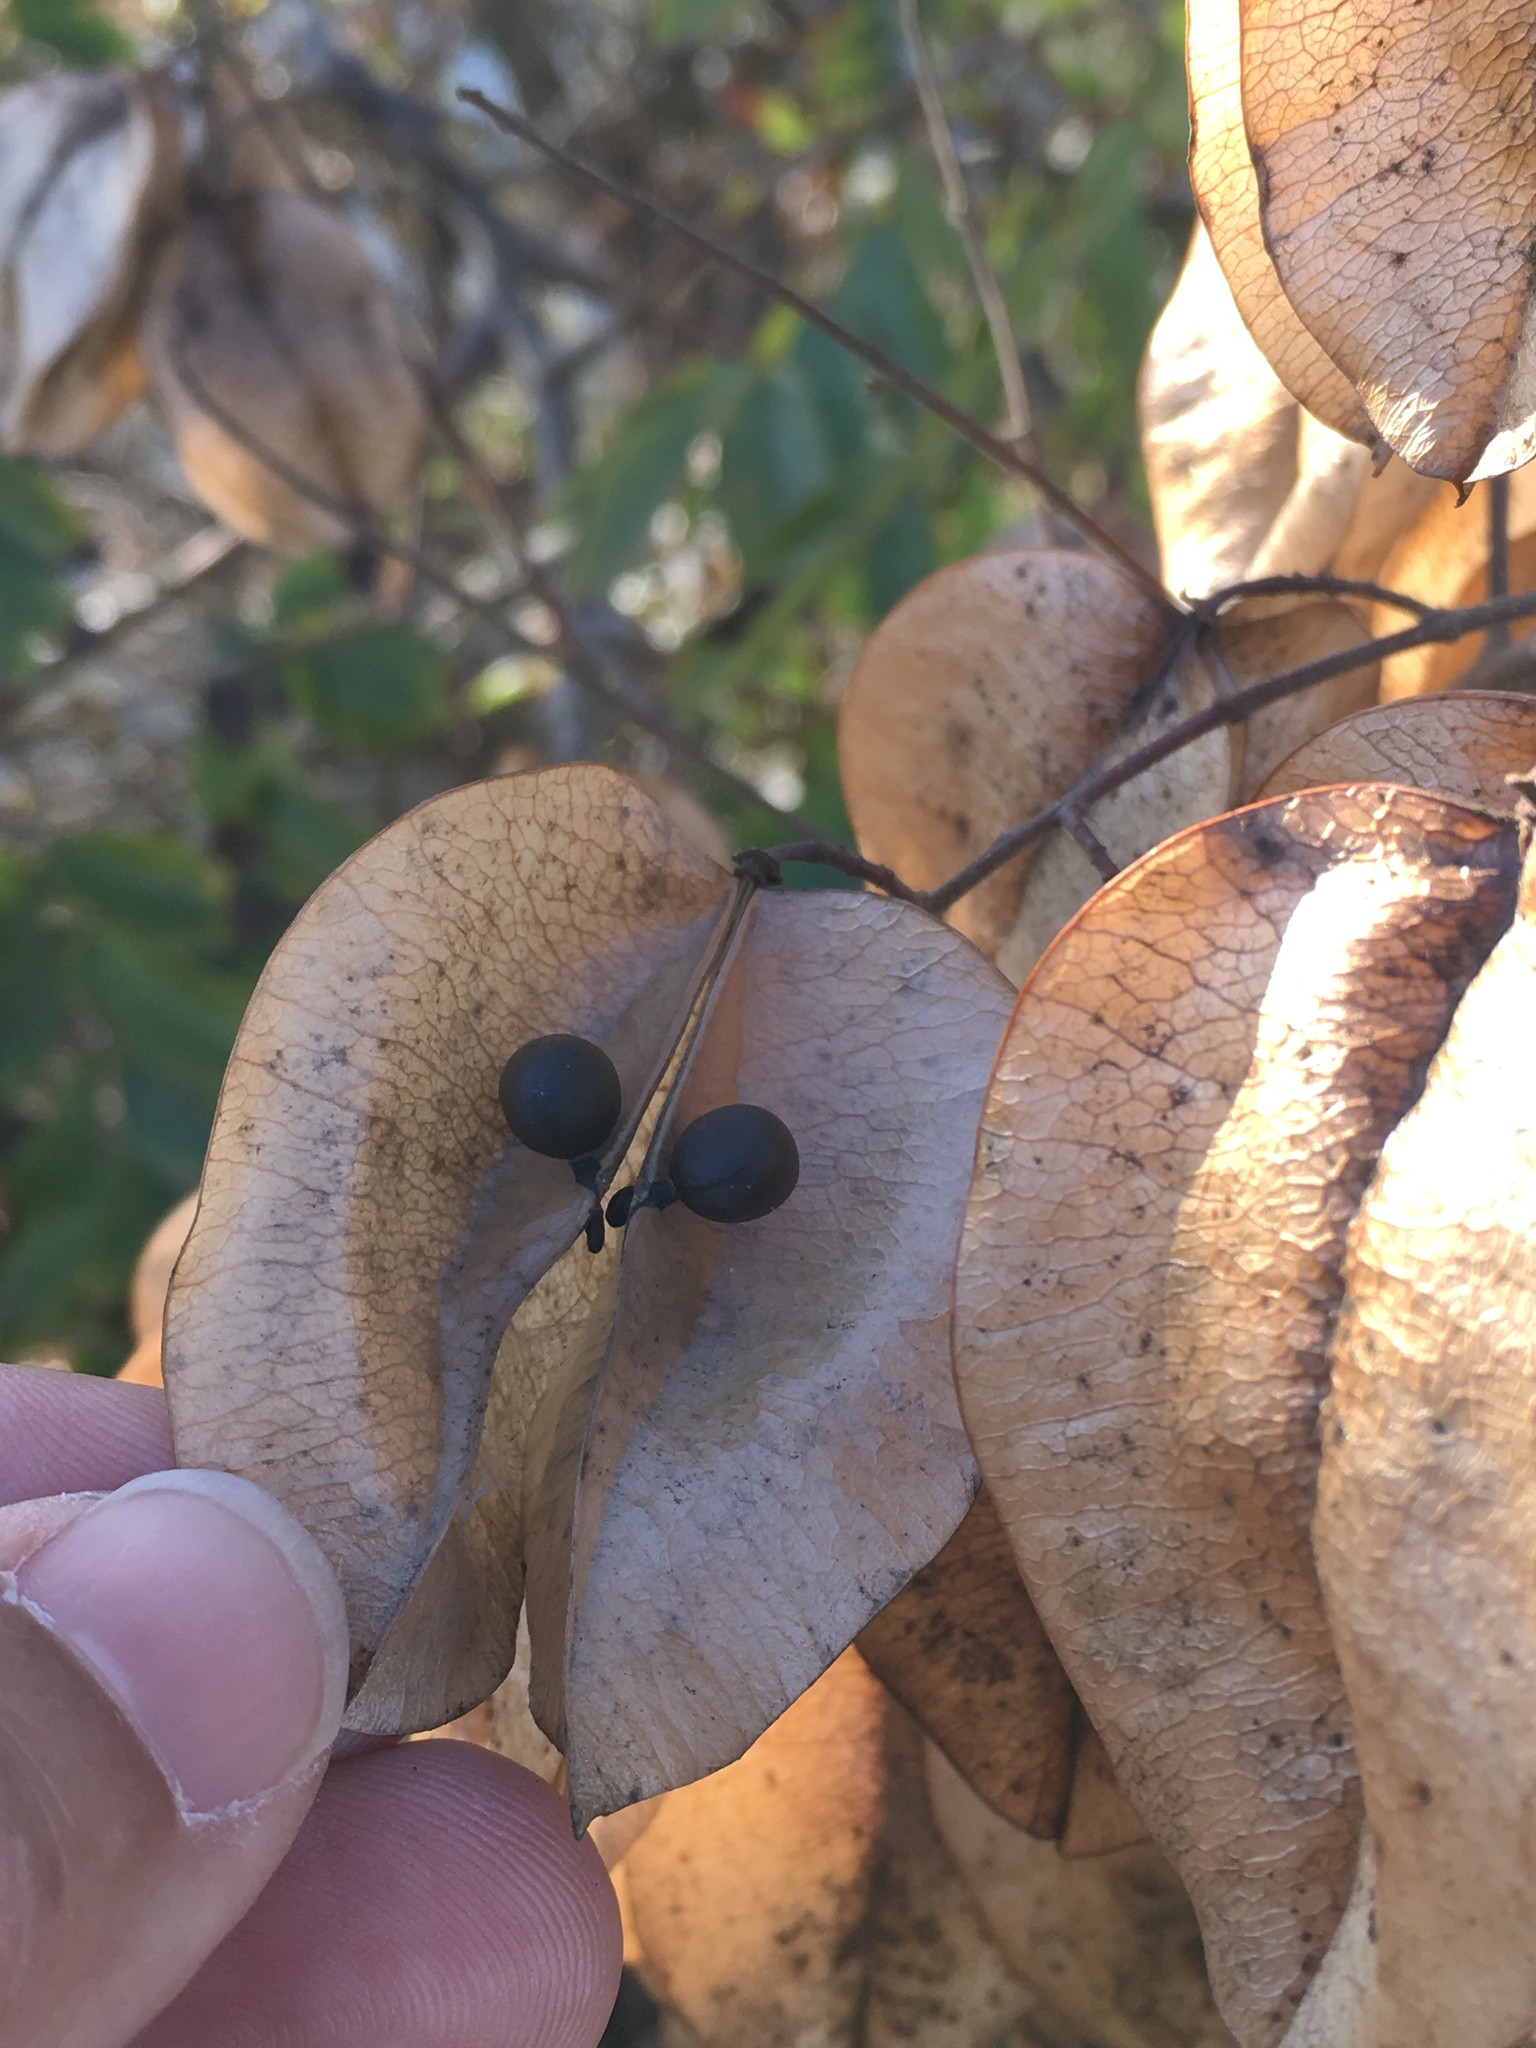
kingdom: Plantae
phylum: Tracheophyta
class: Magnoliopsida
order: Sapindales
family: Sapindaceae
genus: Koelreuteria
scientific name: Koelreuteria paniculata
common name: Pride-of-india
